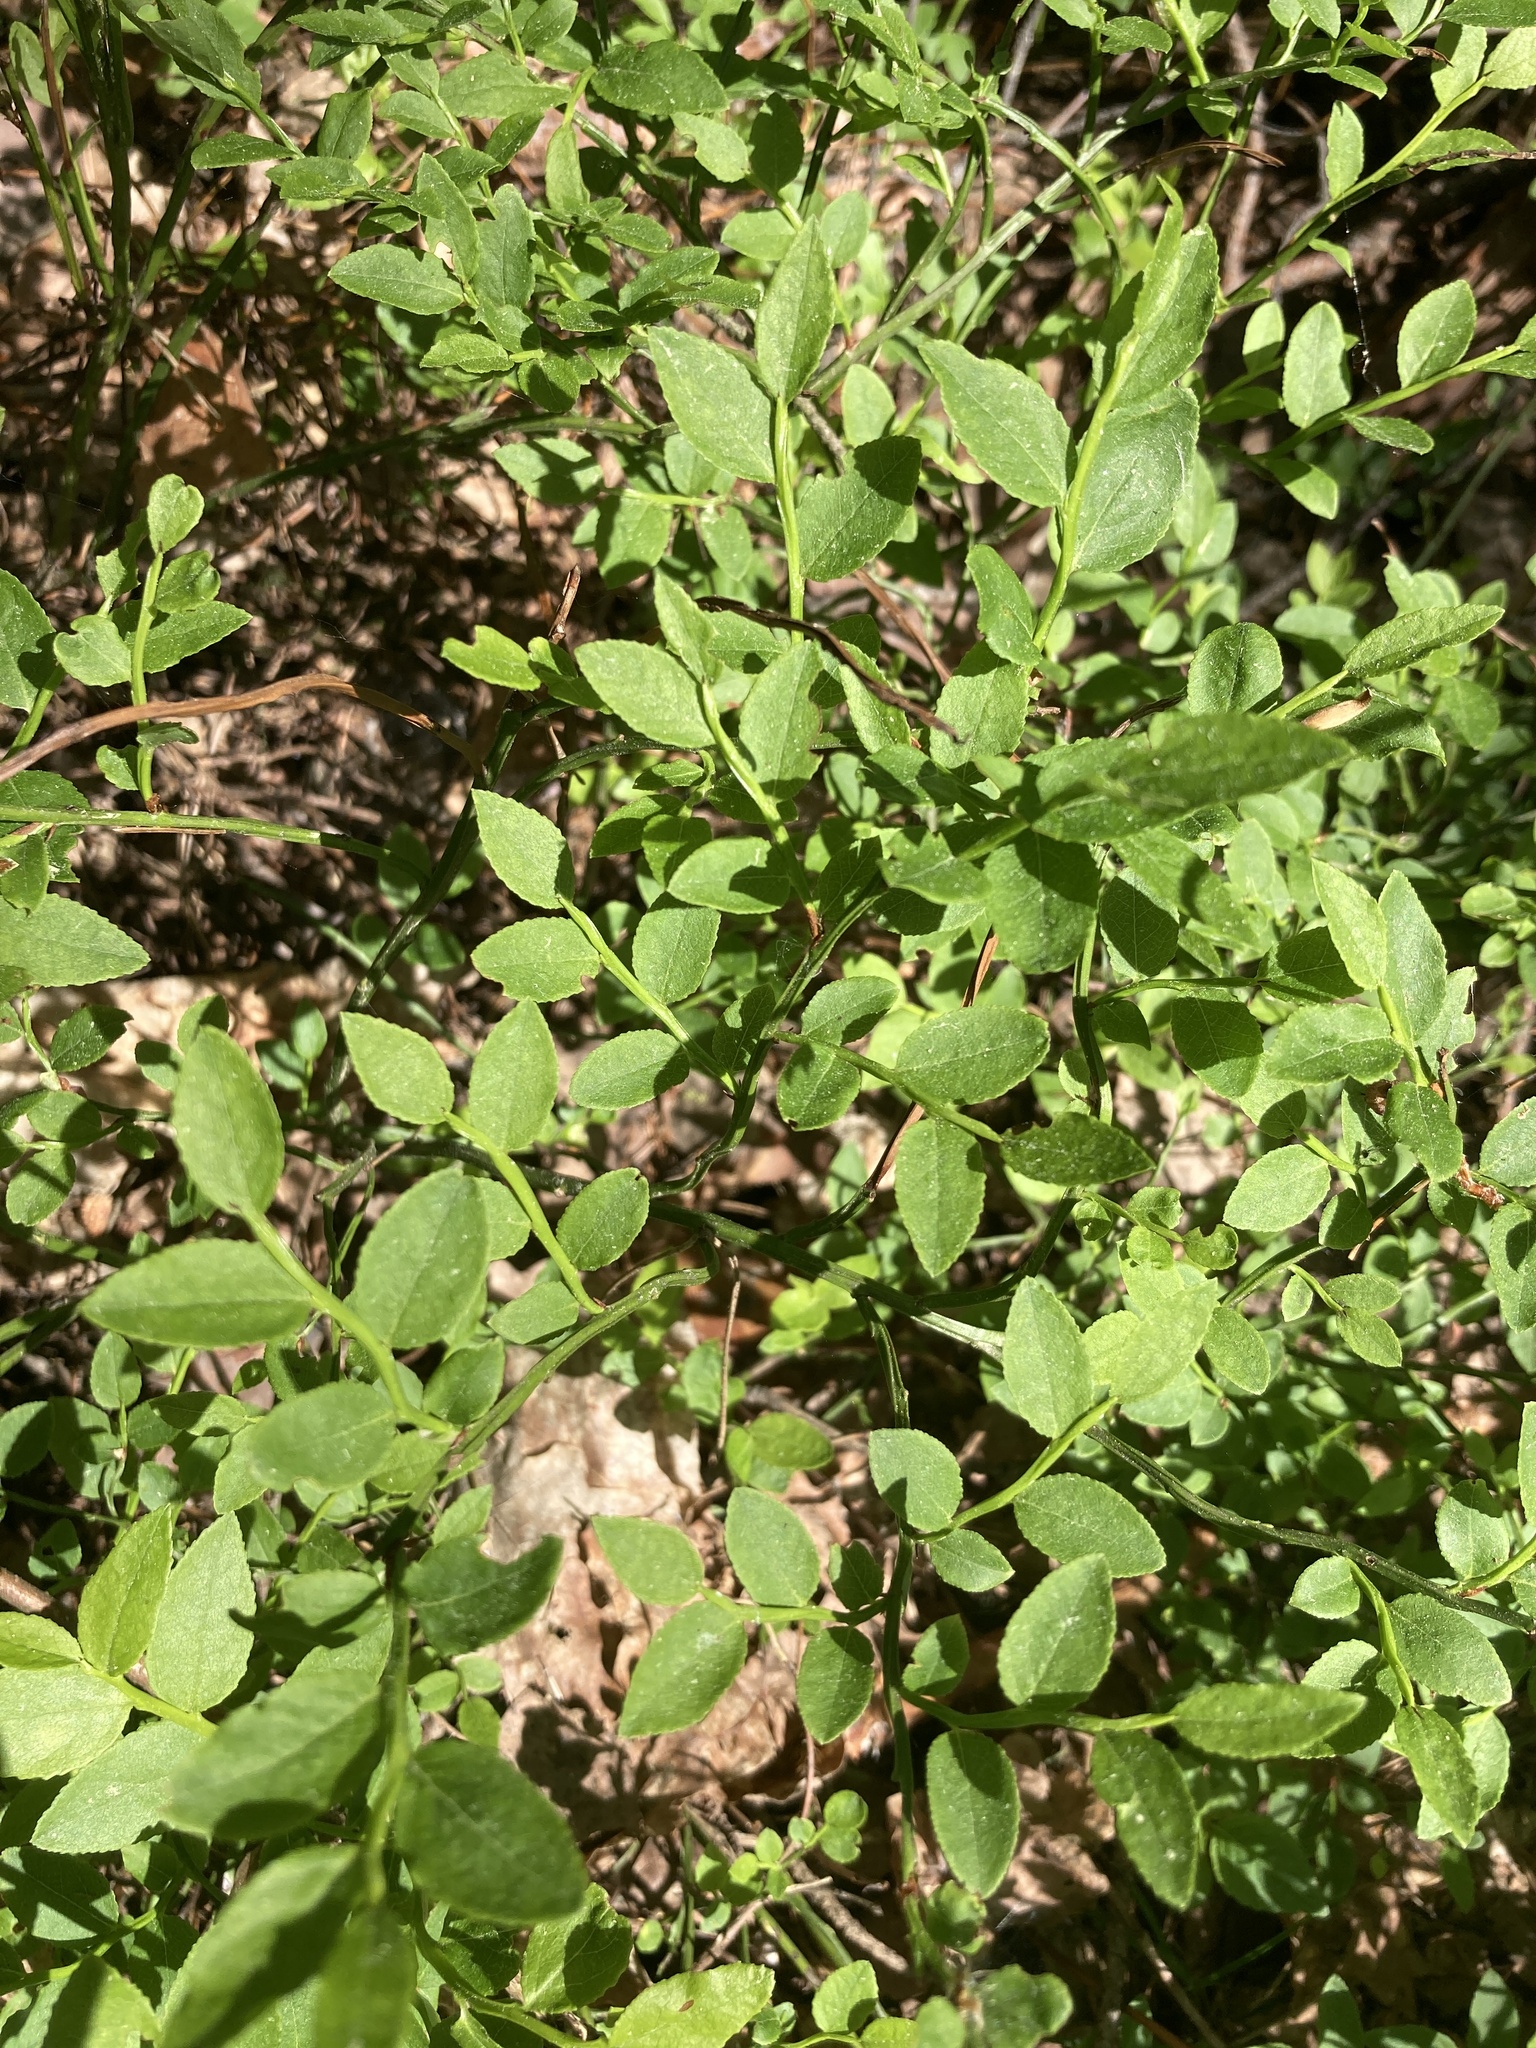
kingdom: Plantae
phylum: Tracheophyta
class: Magnoliopsida
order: Ericales
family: Ericaceae
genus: Vaccinium
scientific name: Vaccinium myrtillus
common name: Bilberry
